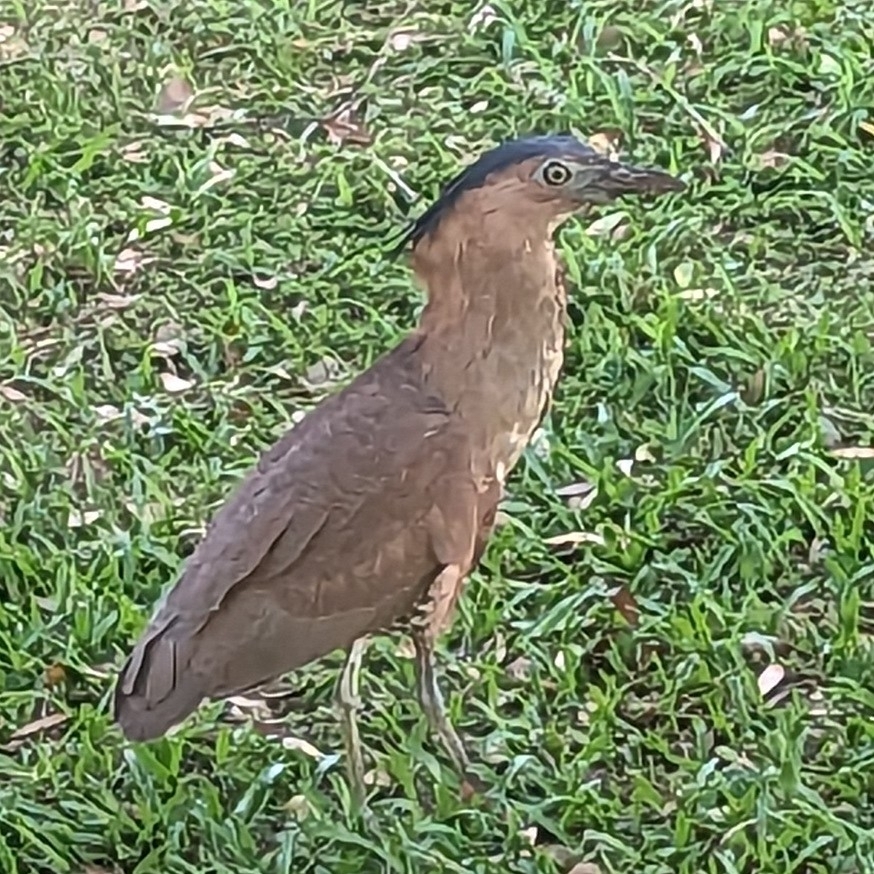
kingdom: Animalia
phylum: Chordata
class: Aves
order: Pelecaniformes
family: Ardeidae
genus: Gorsachius
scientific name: Gorsachius melanolophus
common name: Malayan night heron
